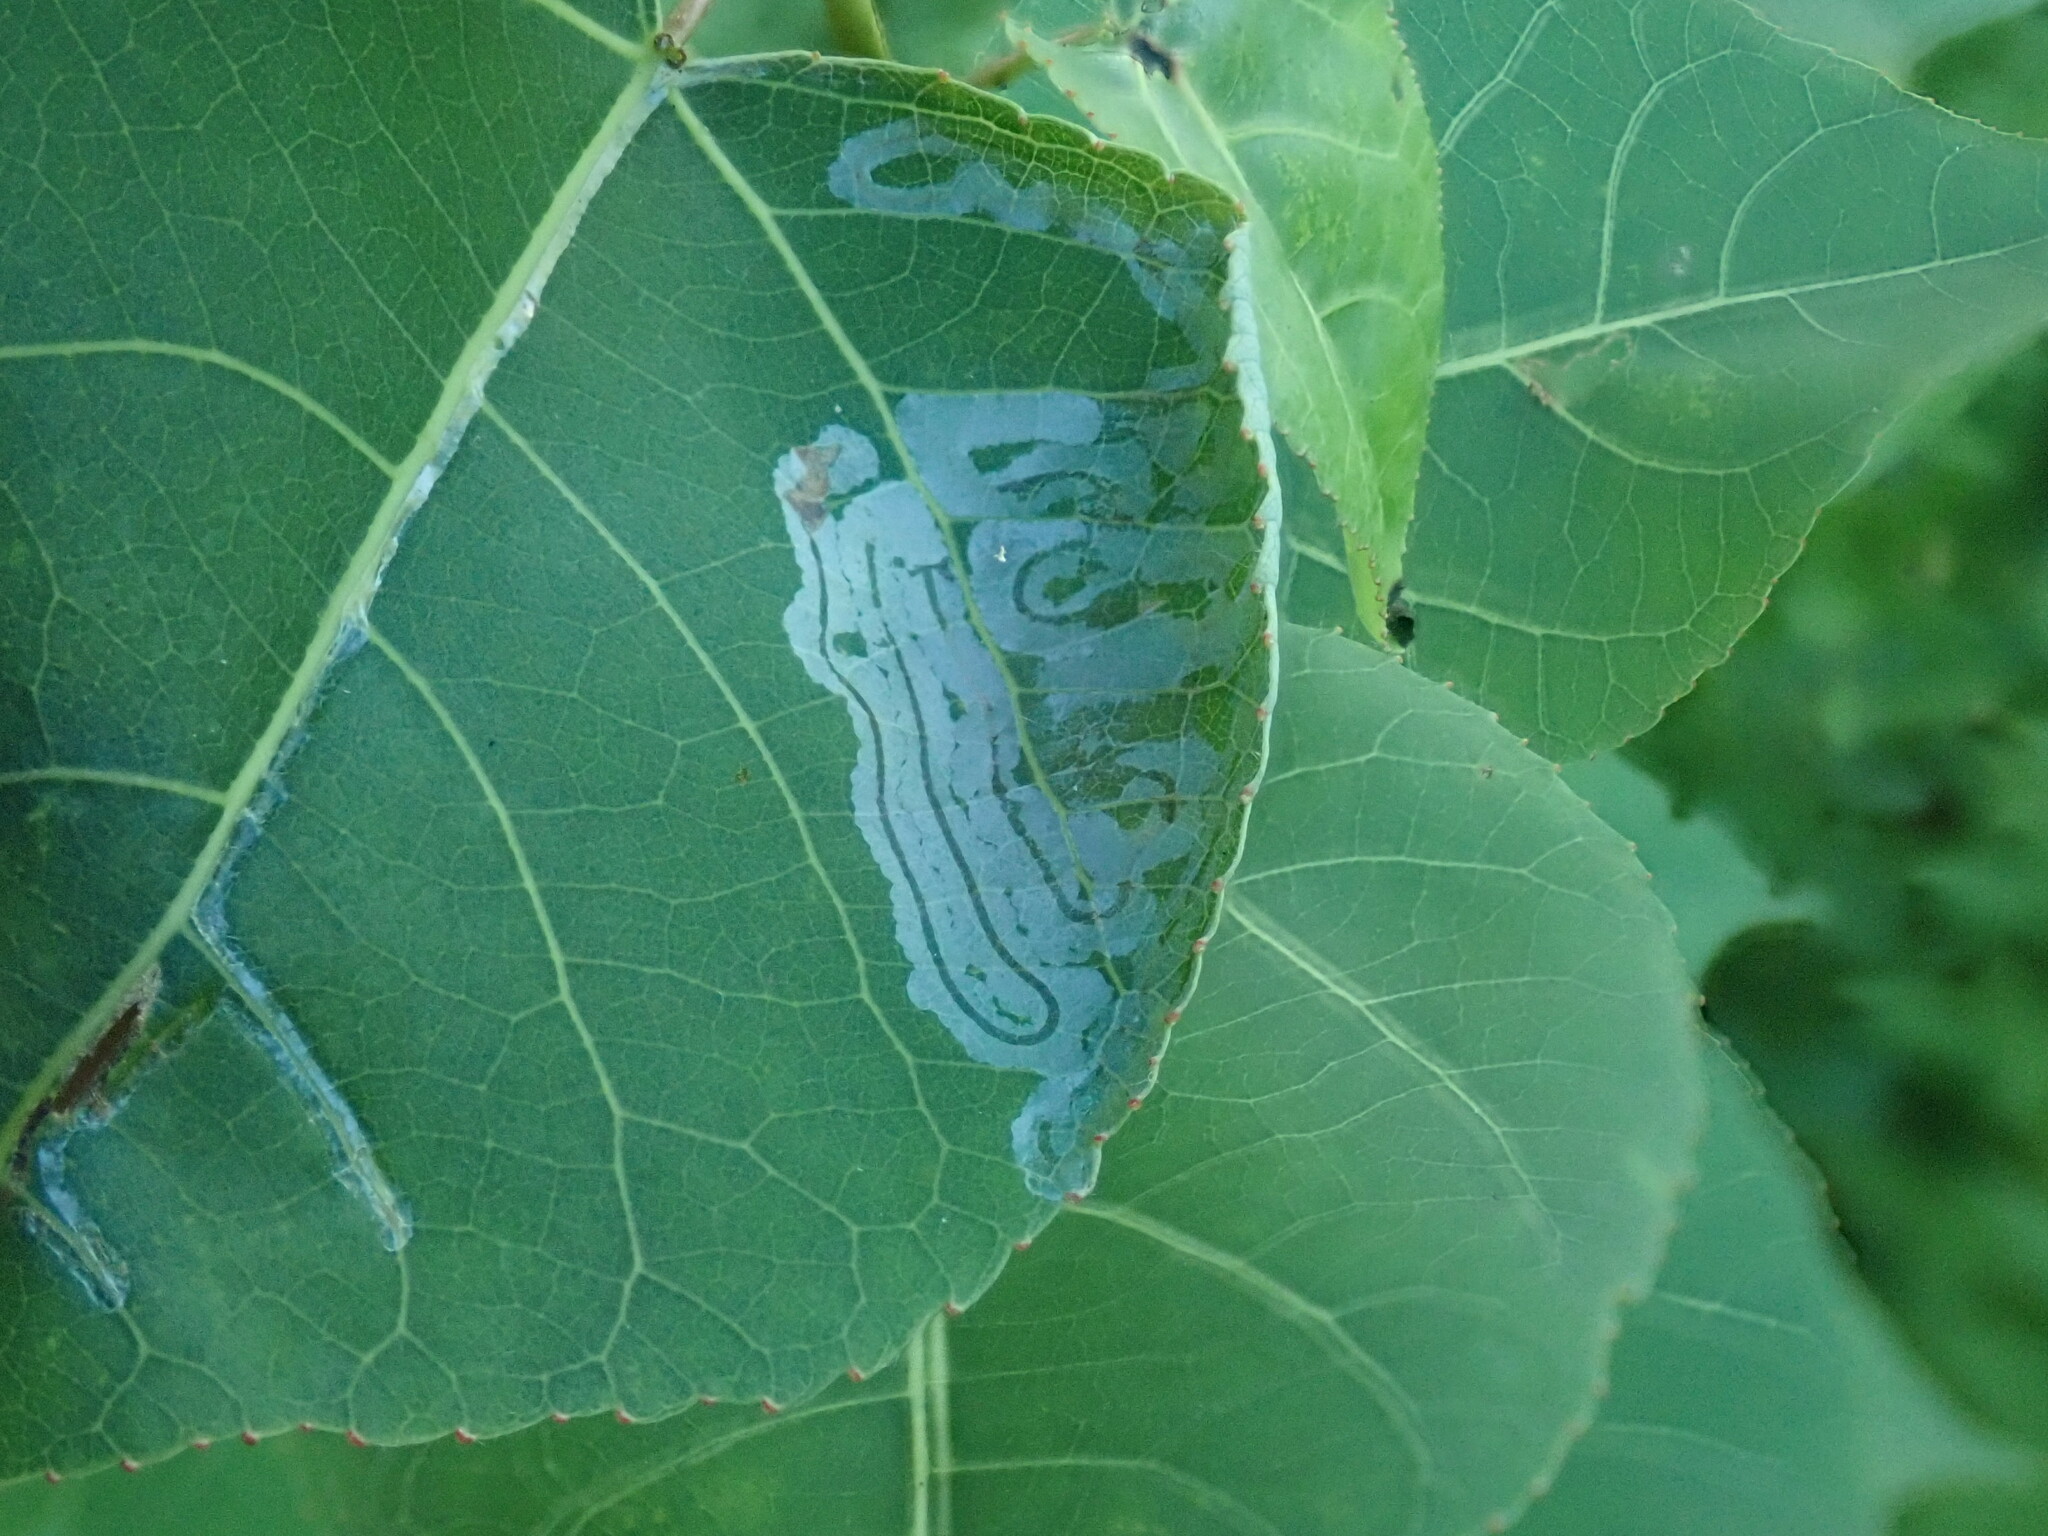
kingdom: Animalia
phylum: Arthropoda
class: Insecta
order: Lepidoptera
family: Gracillariidae
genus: Phyllocnistis
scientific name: Phyllocnistis populiella
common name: Aspen serpentine leafminer moth
